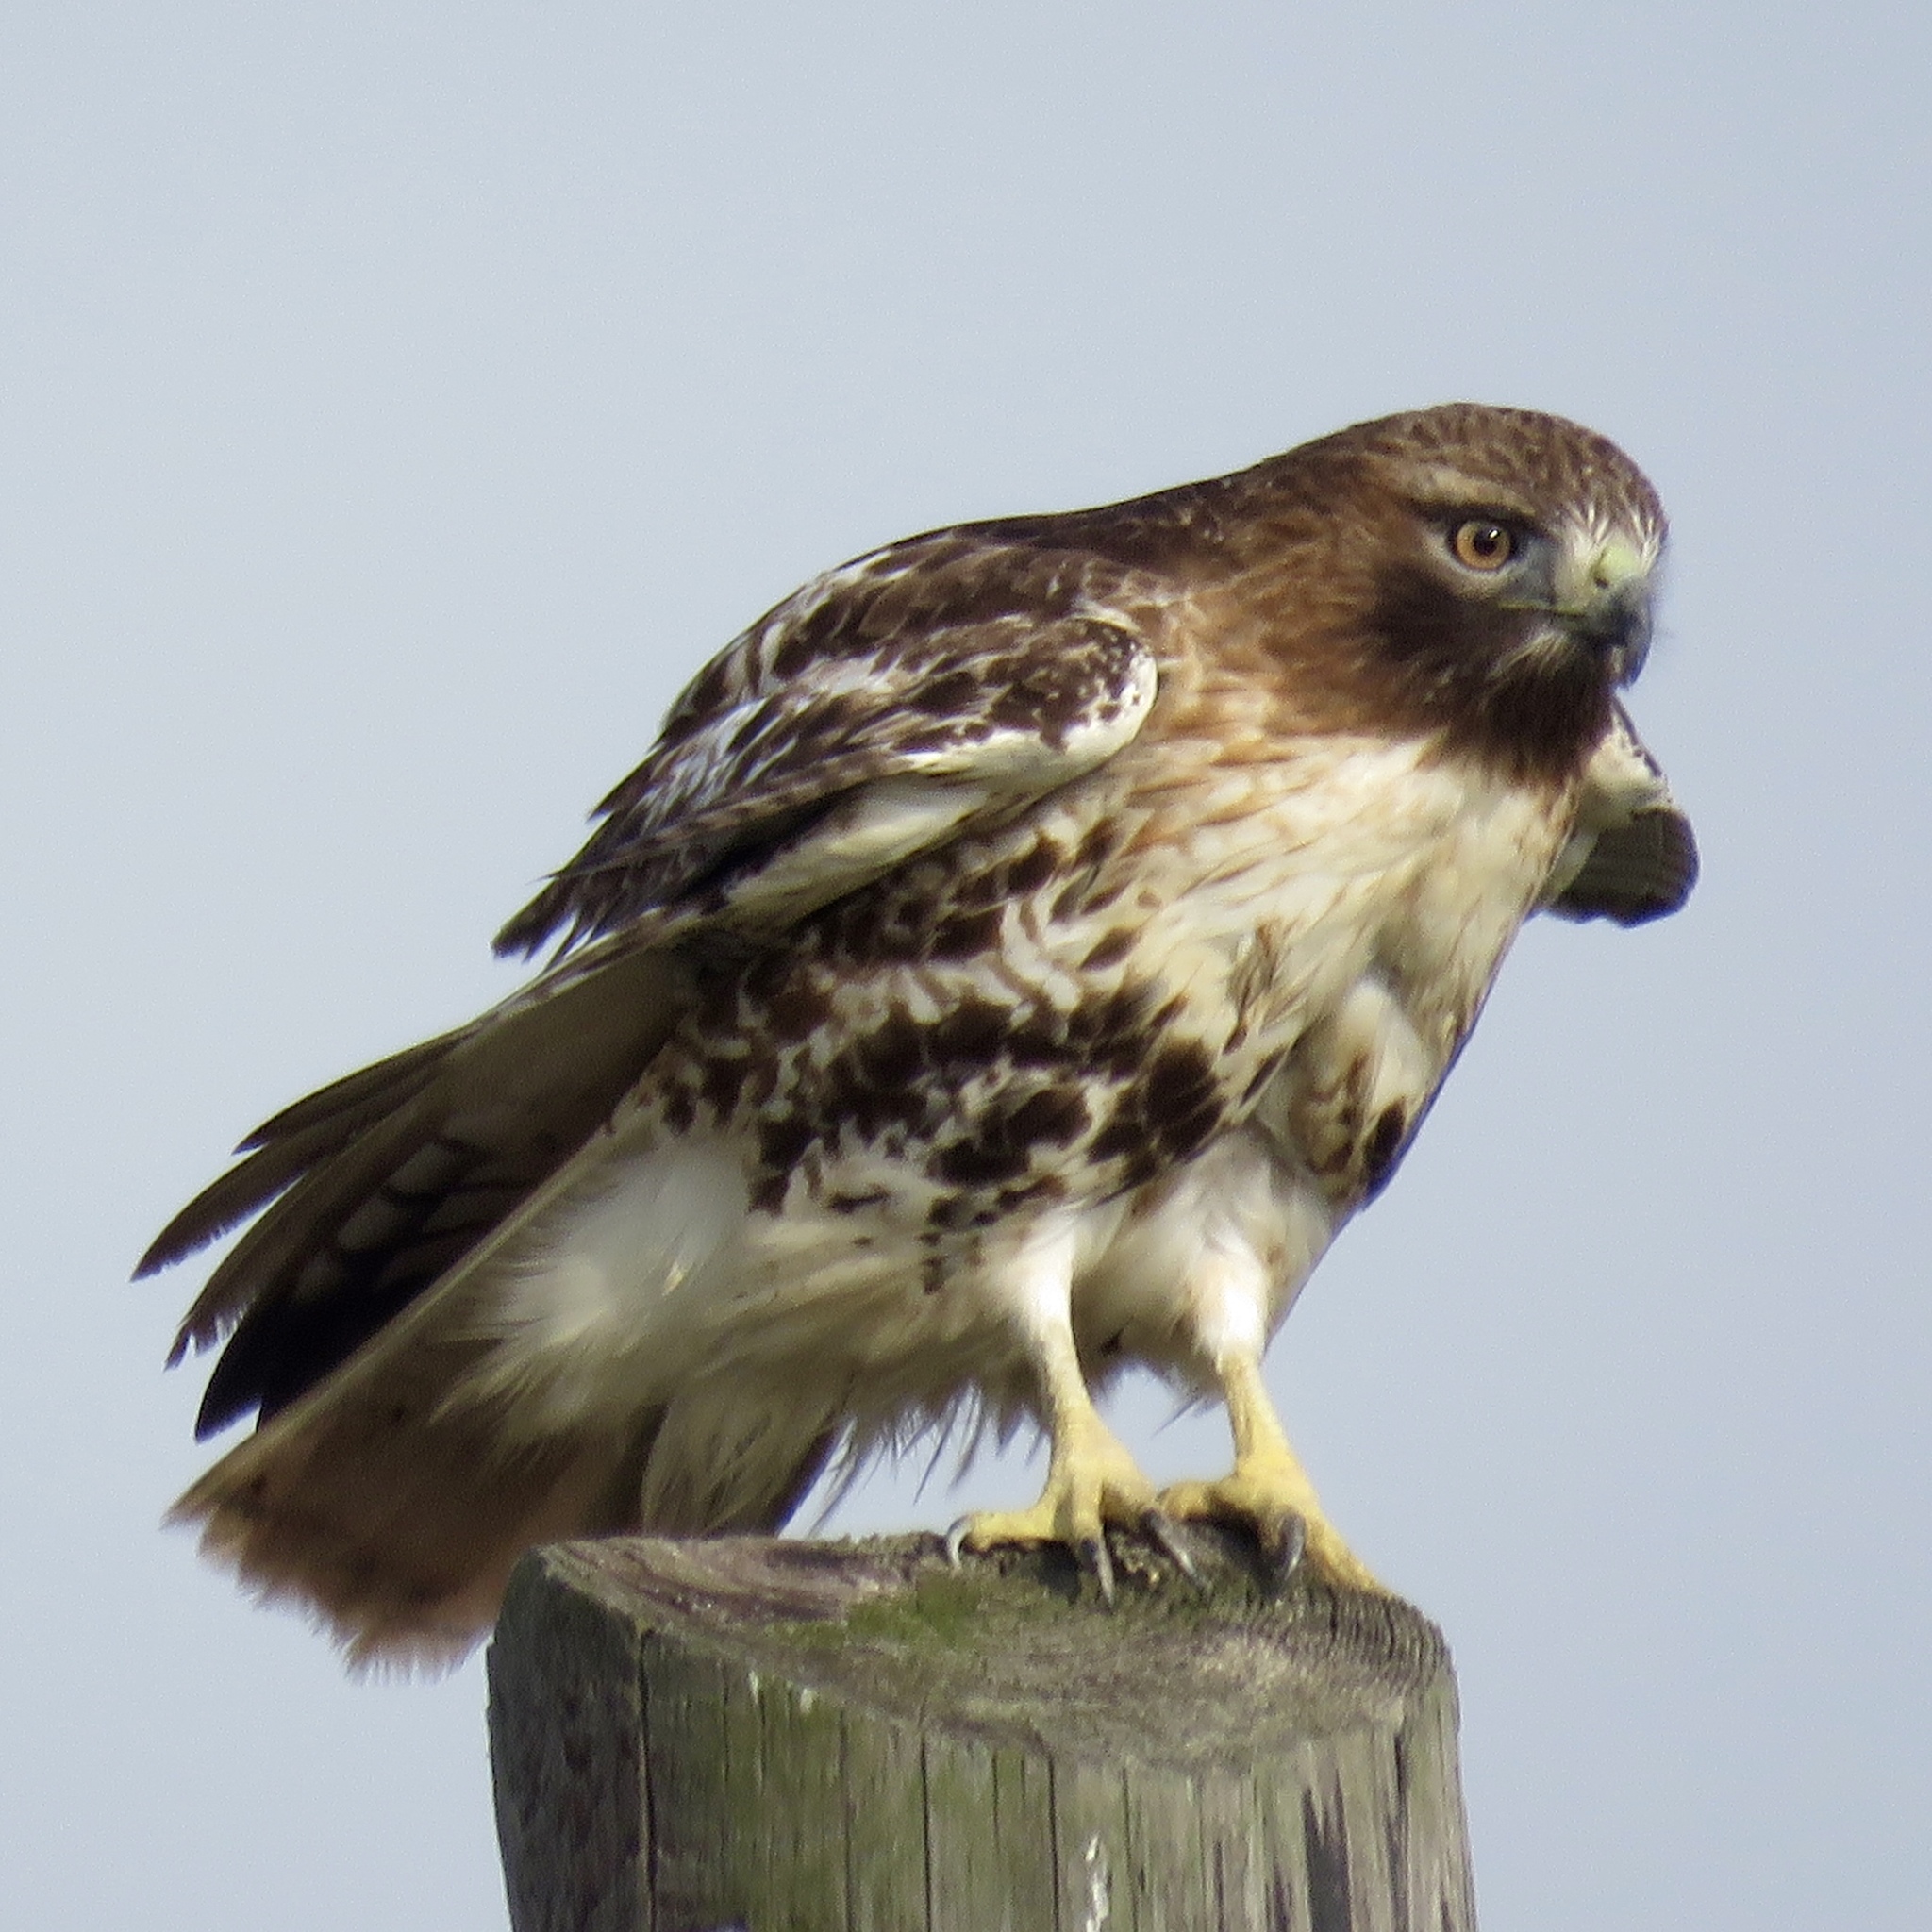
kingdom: Animalia
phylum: Chordata
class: Aves
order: Accipitriformes
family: Accipitridae
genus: Buteo
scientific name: Buteo jamaicensis
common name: Red-tailed hawk
